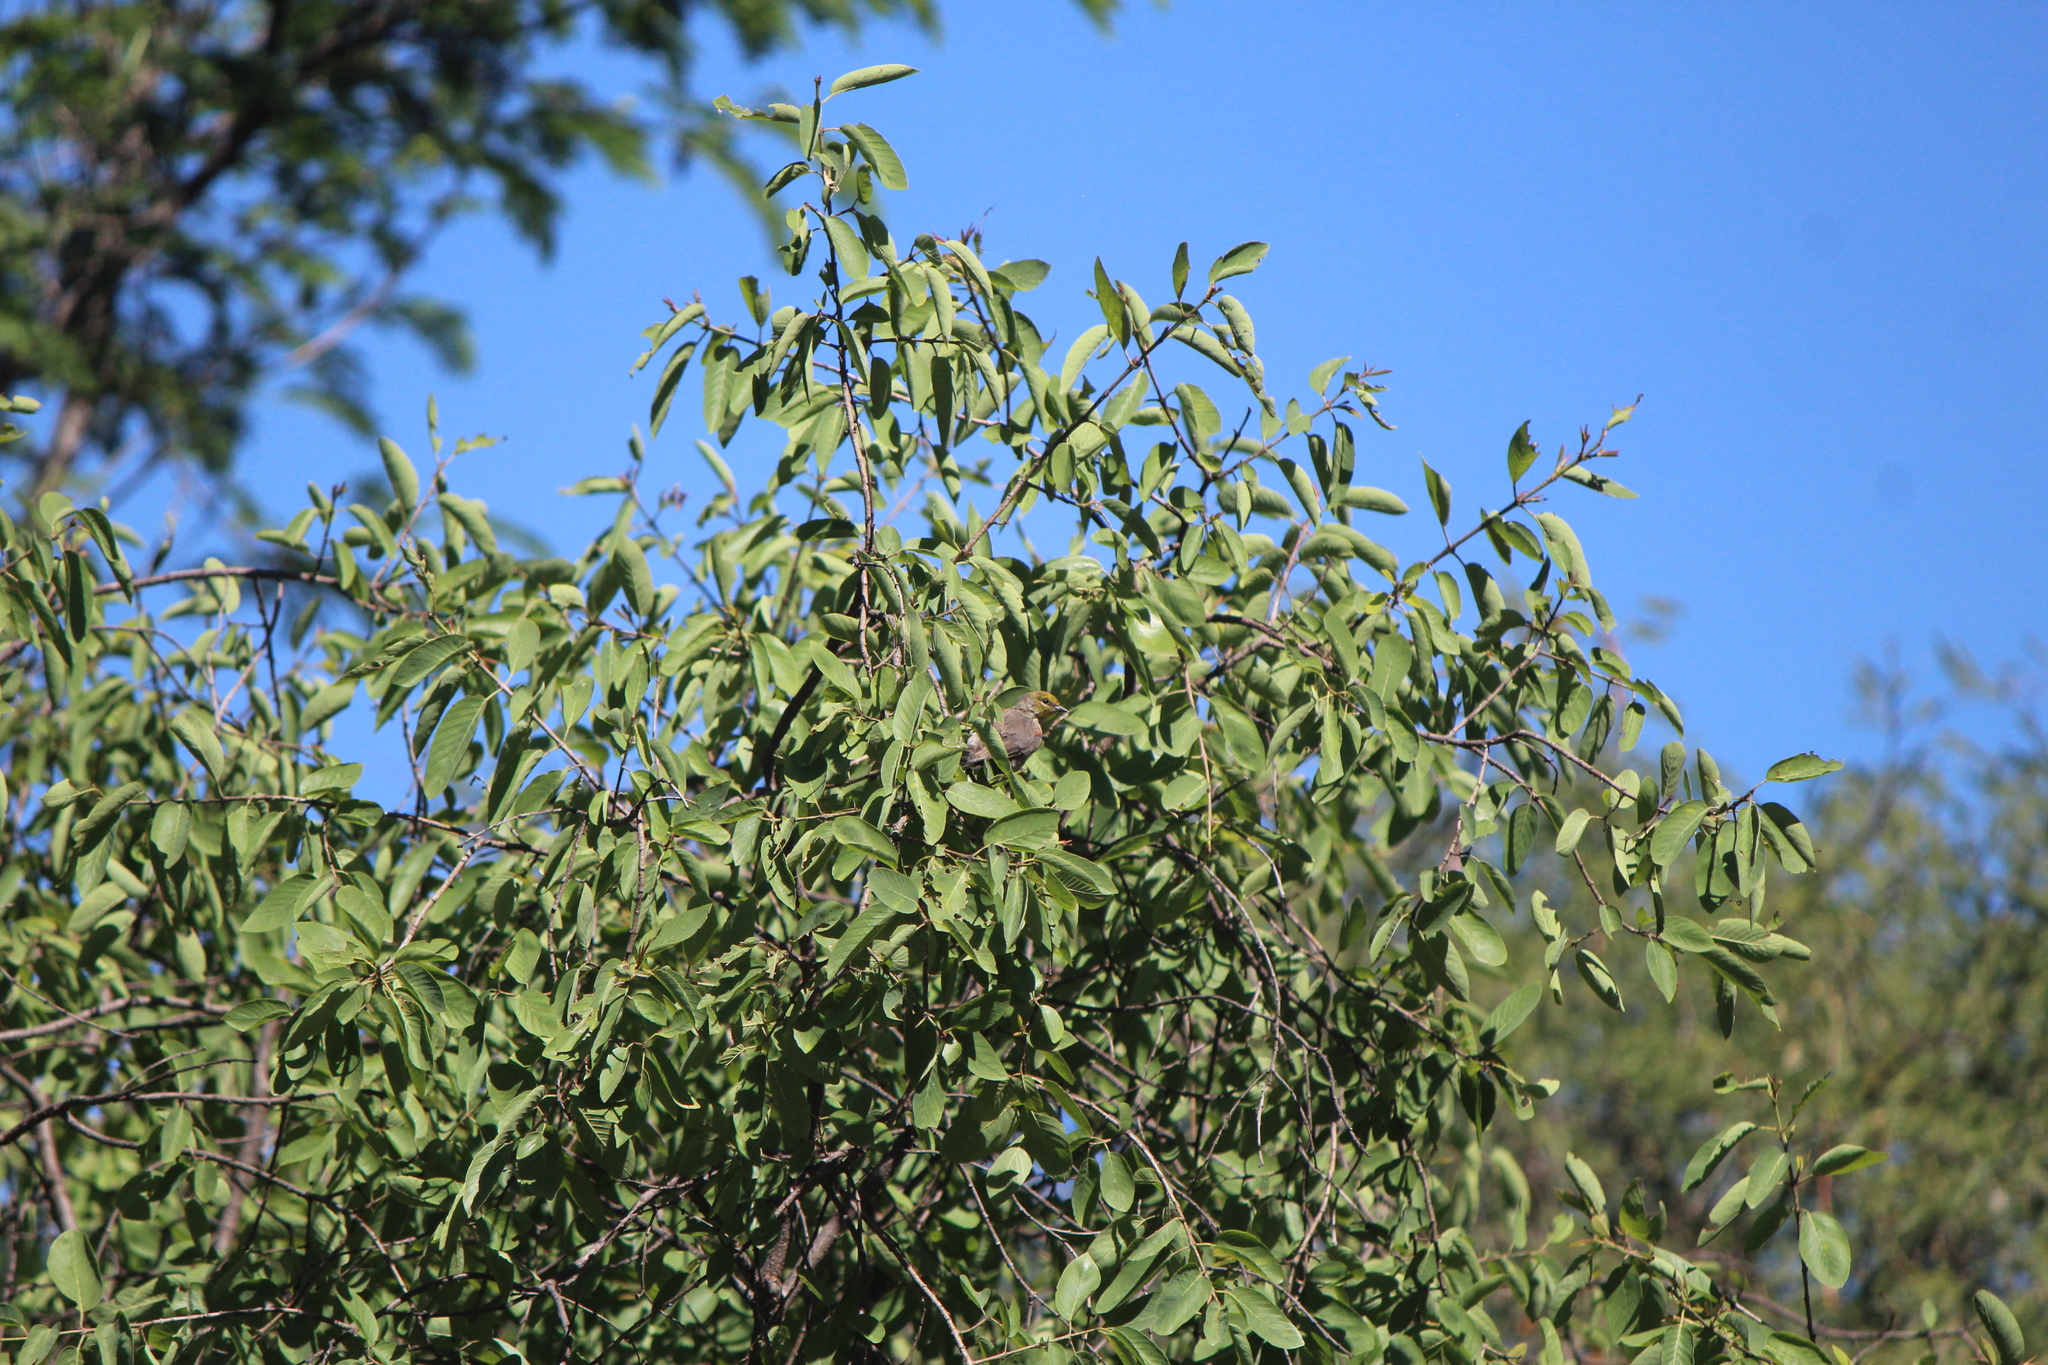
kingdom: Animalia
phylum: Chordata
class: Aves
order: Passeriformes
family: Remizidae
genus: Auriparus
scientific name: Auriparus flaviceps
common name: Verdin
